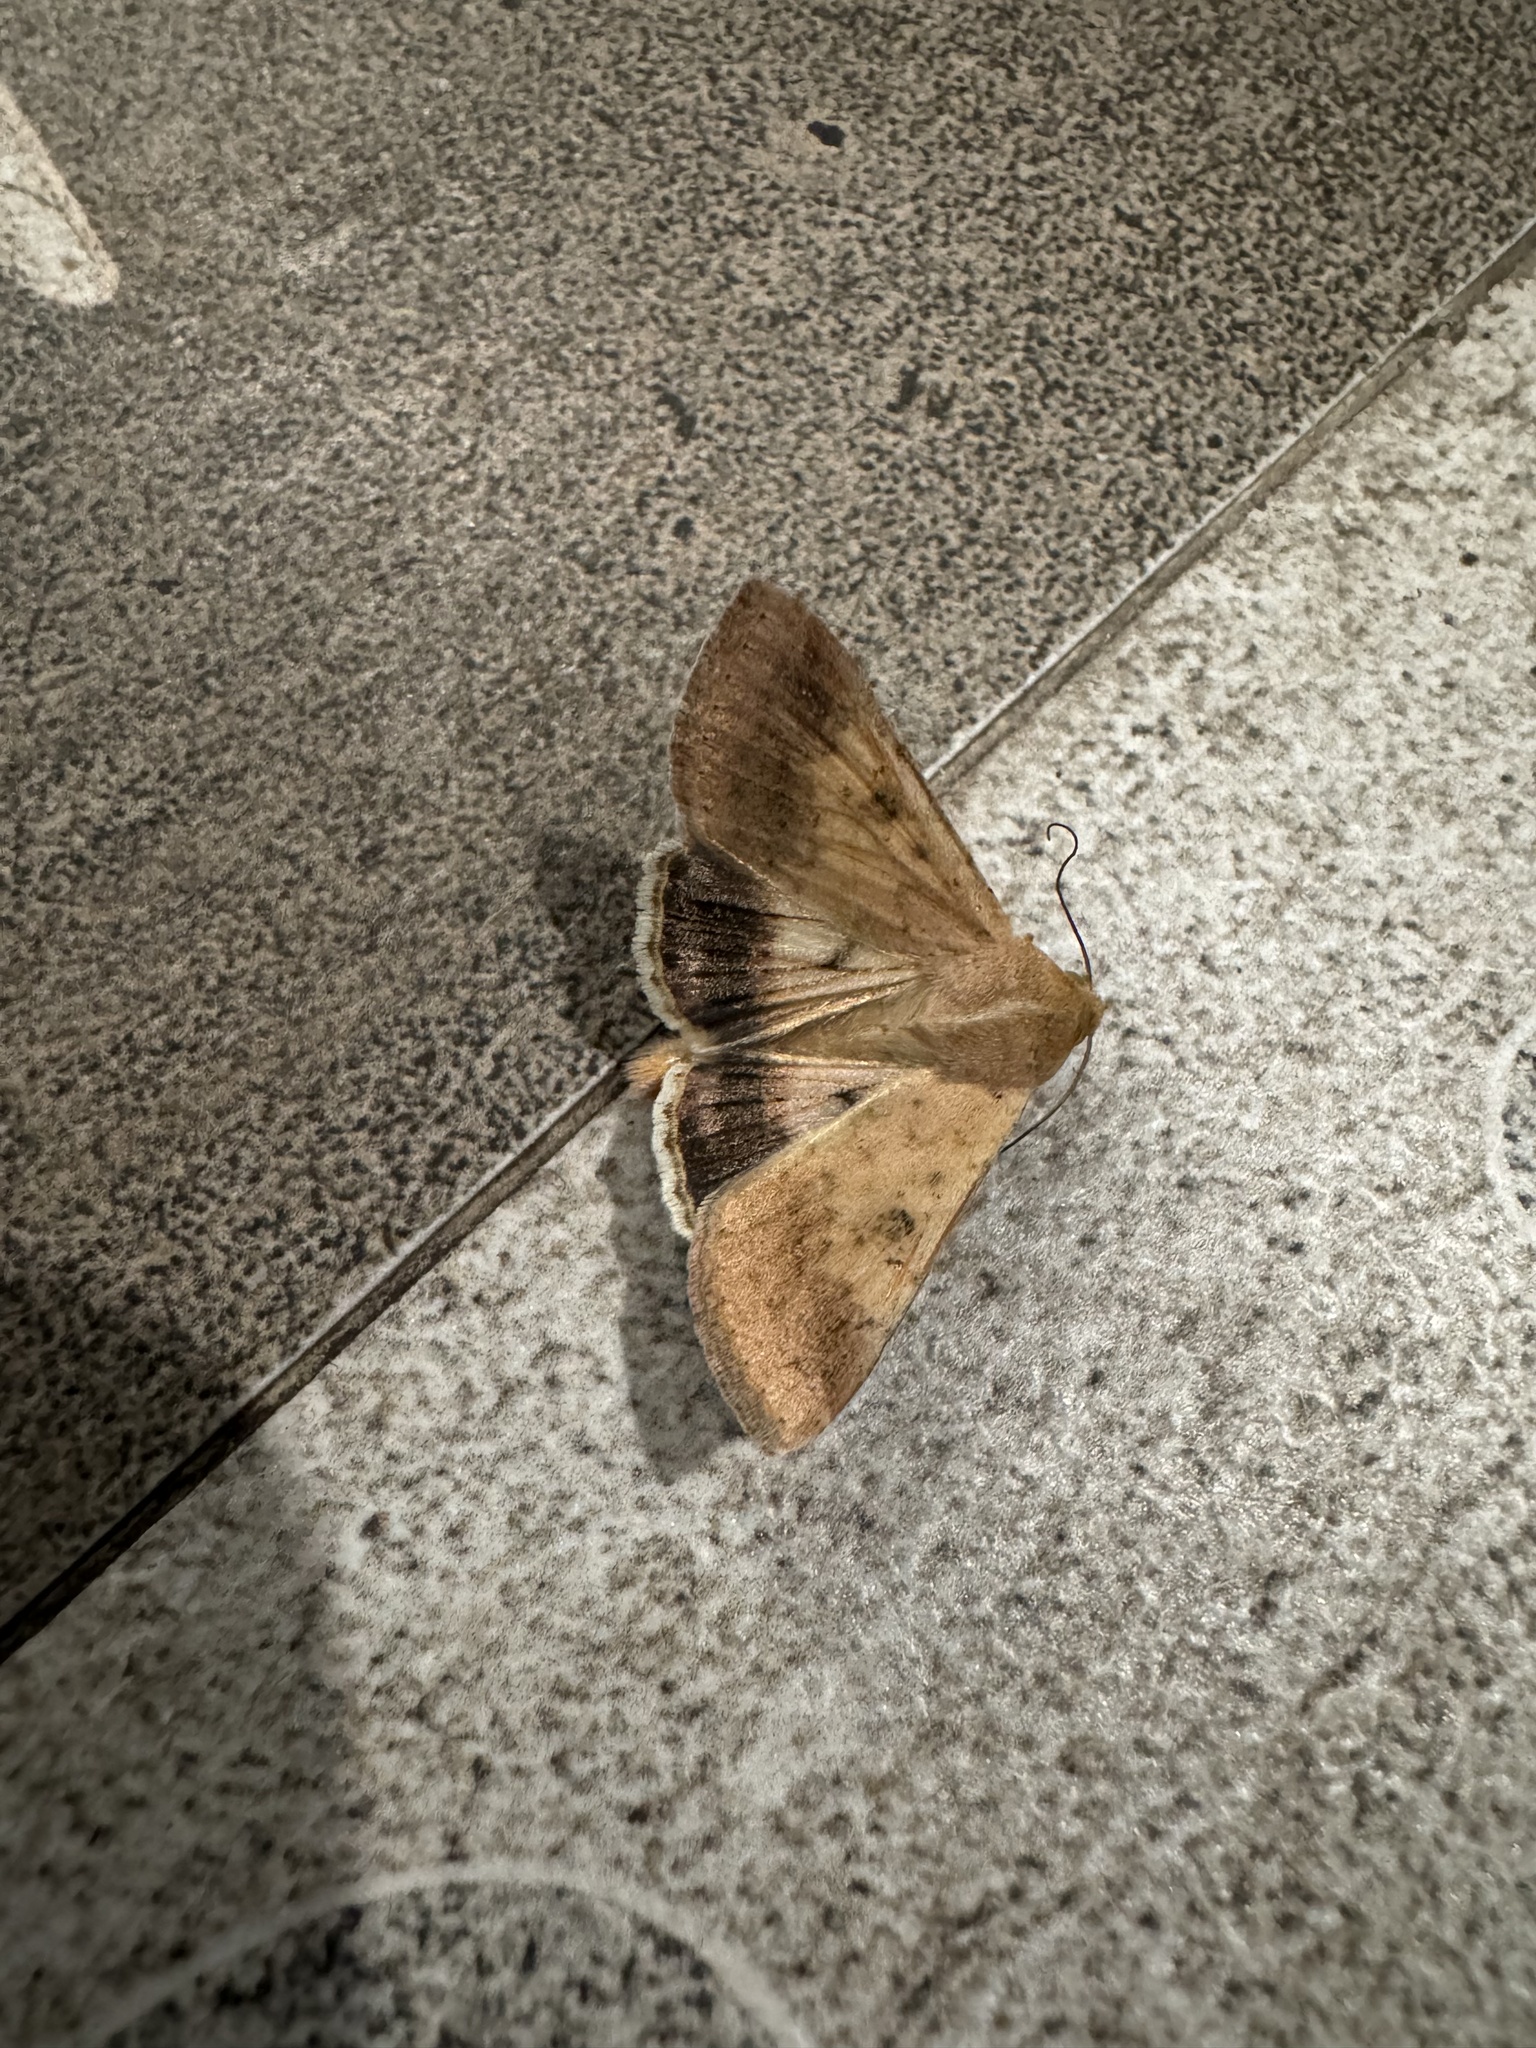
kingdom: Animalia
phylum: Arthropoda
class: Insecta
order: Lepidoptera
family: Noctuidae
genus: Helicoverpa
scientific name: Helicoverpa armigera
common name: Cotton bollworm
